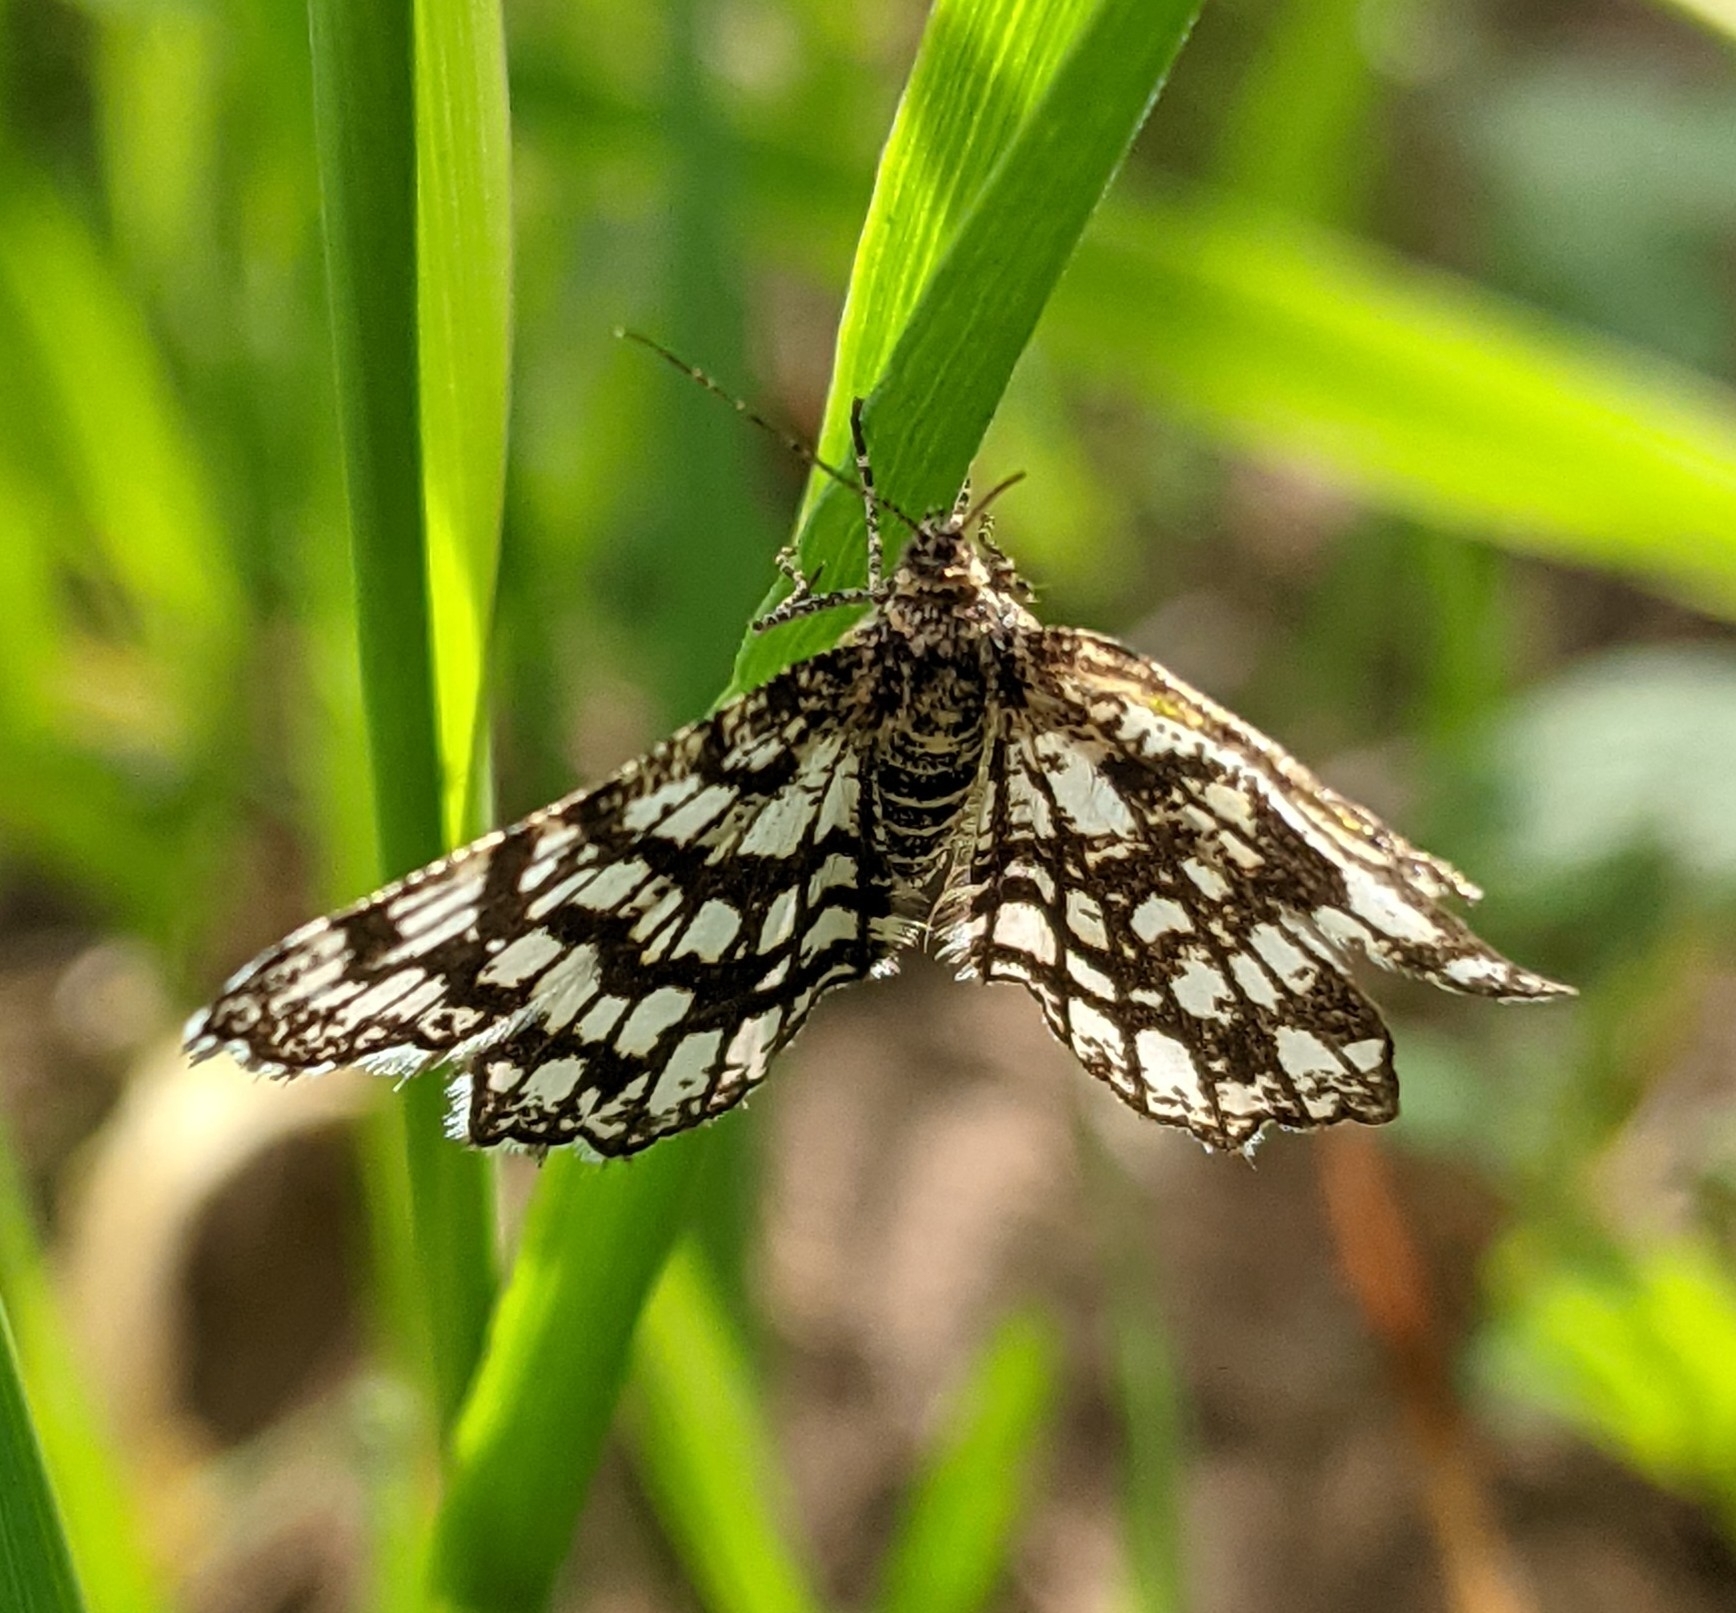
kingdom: Animalia
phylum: Arthropoda
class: Insecta
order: Lepidoptera
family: Geometridae
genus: Chiasmia
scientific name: Chiasmia clathrata
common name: Latticed heath
